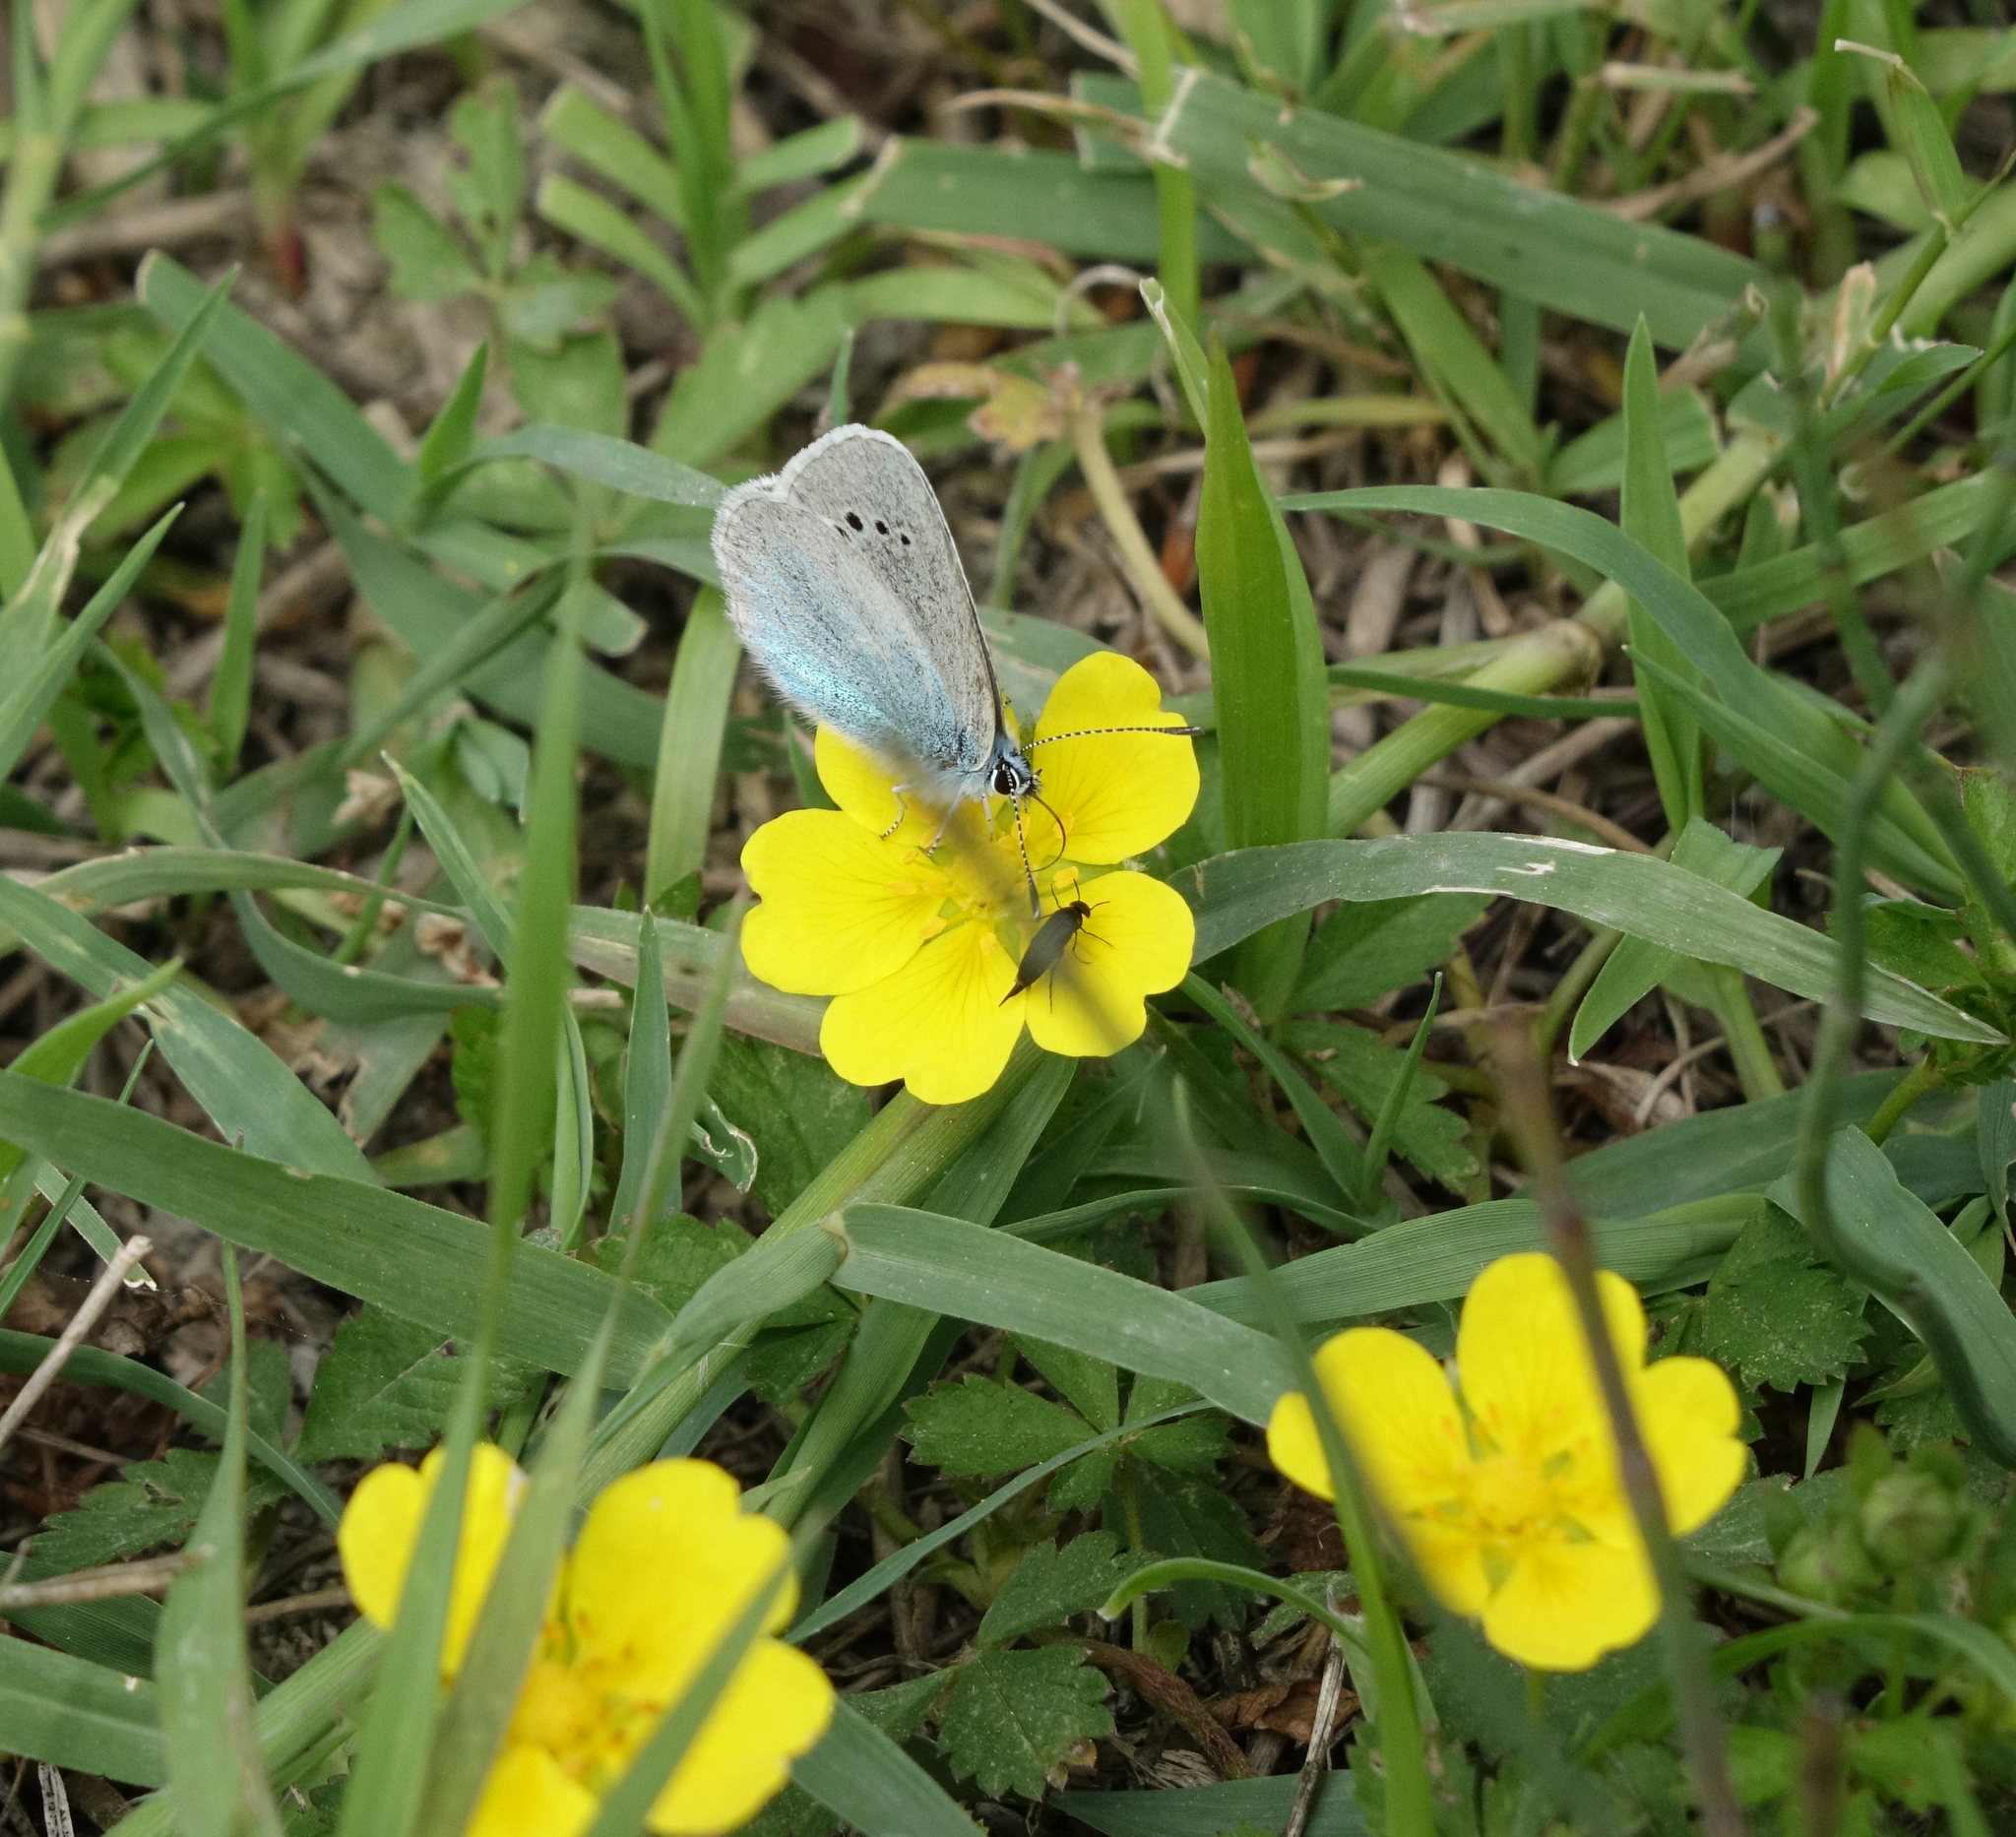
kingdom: Animalia
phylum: Arthropoda
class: Insecta
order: Lepidoptera
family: Lycaenidae
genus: Glaucopsyche
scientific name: Glaucopsyche alexis
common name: Green-underside blue
